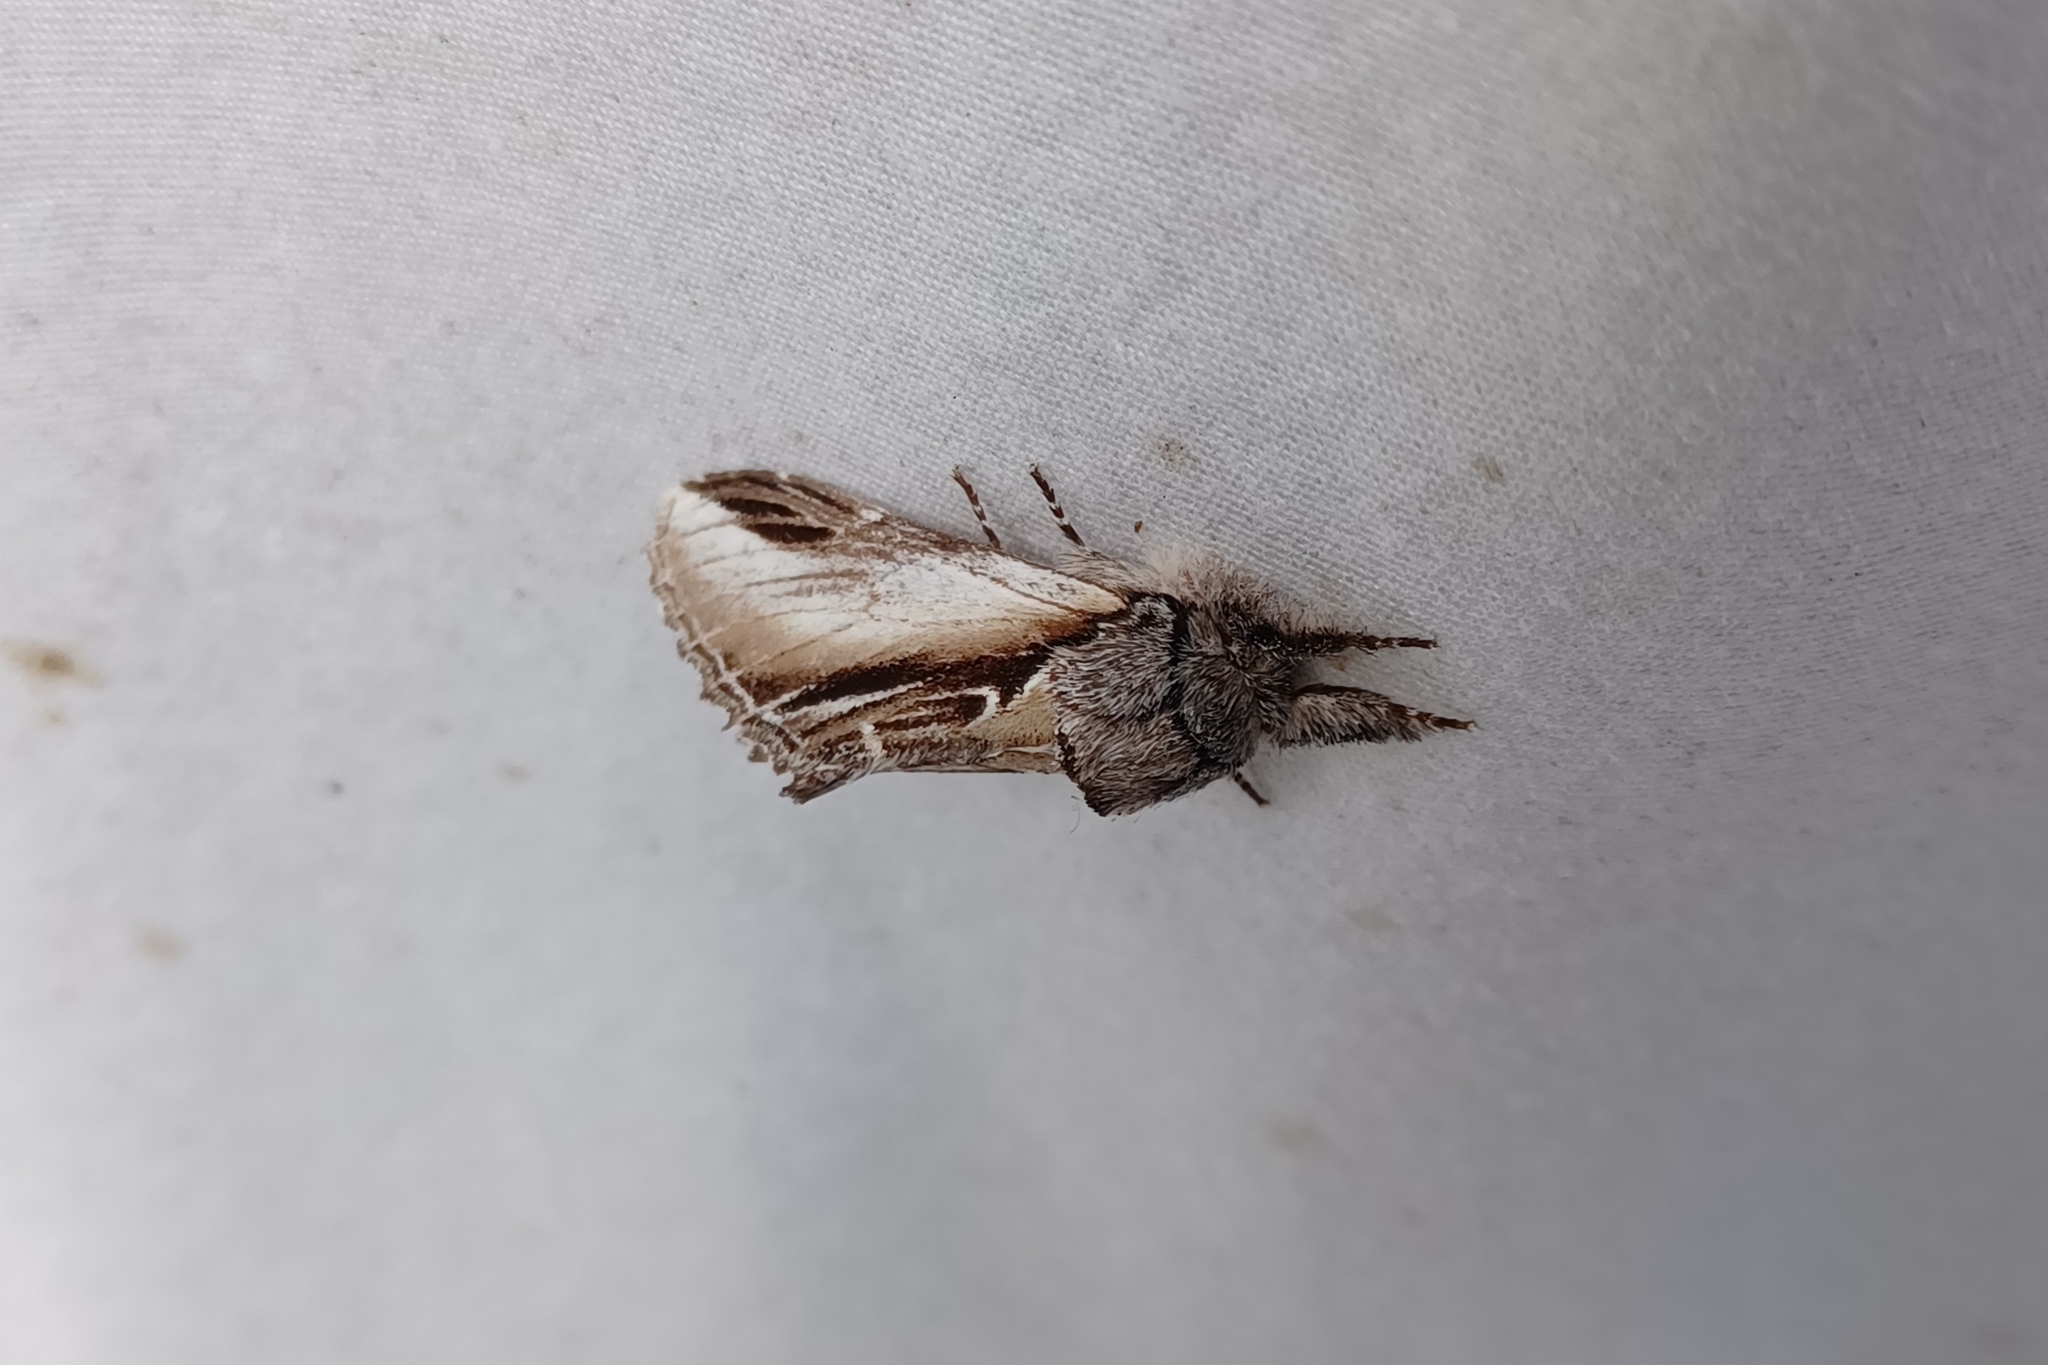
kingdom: Animalia
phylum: Arthropoda
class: Insecta
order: Lepidoptera
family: Notodontidae
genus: Pheosia
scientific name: Pheosia rimosa
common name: Black-rimmed prominent
